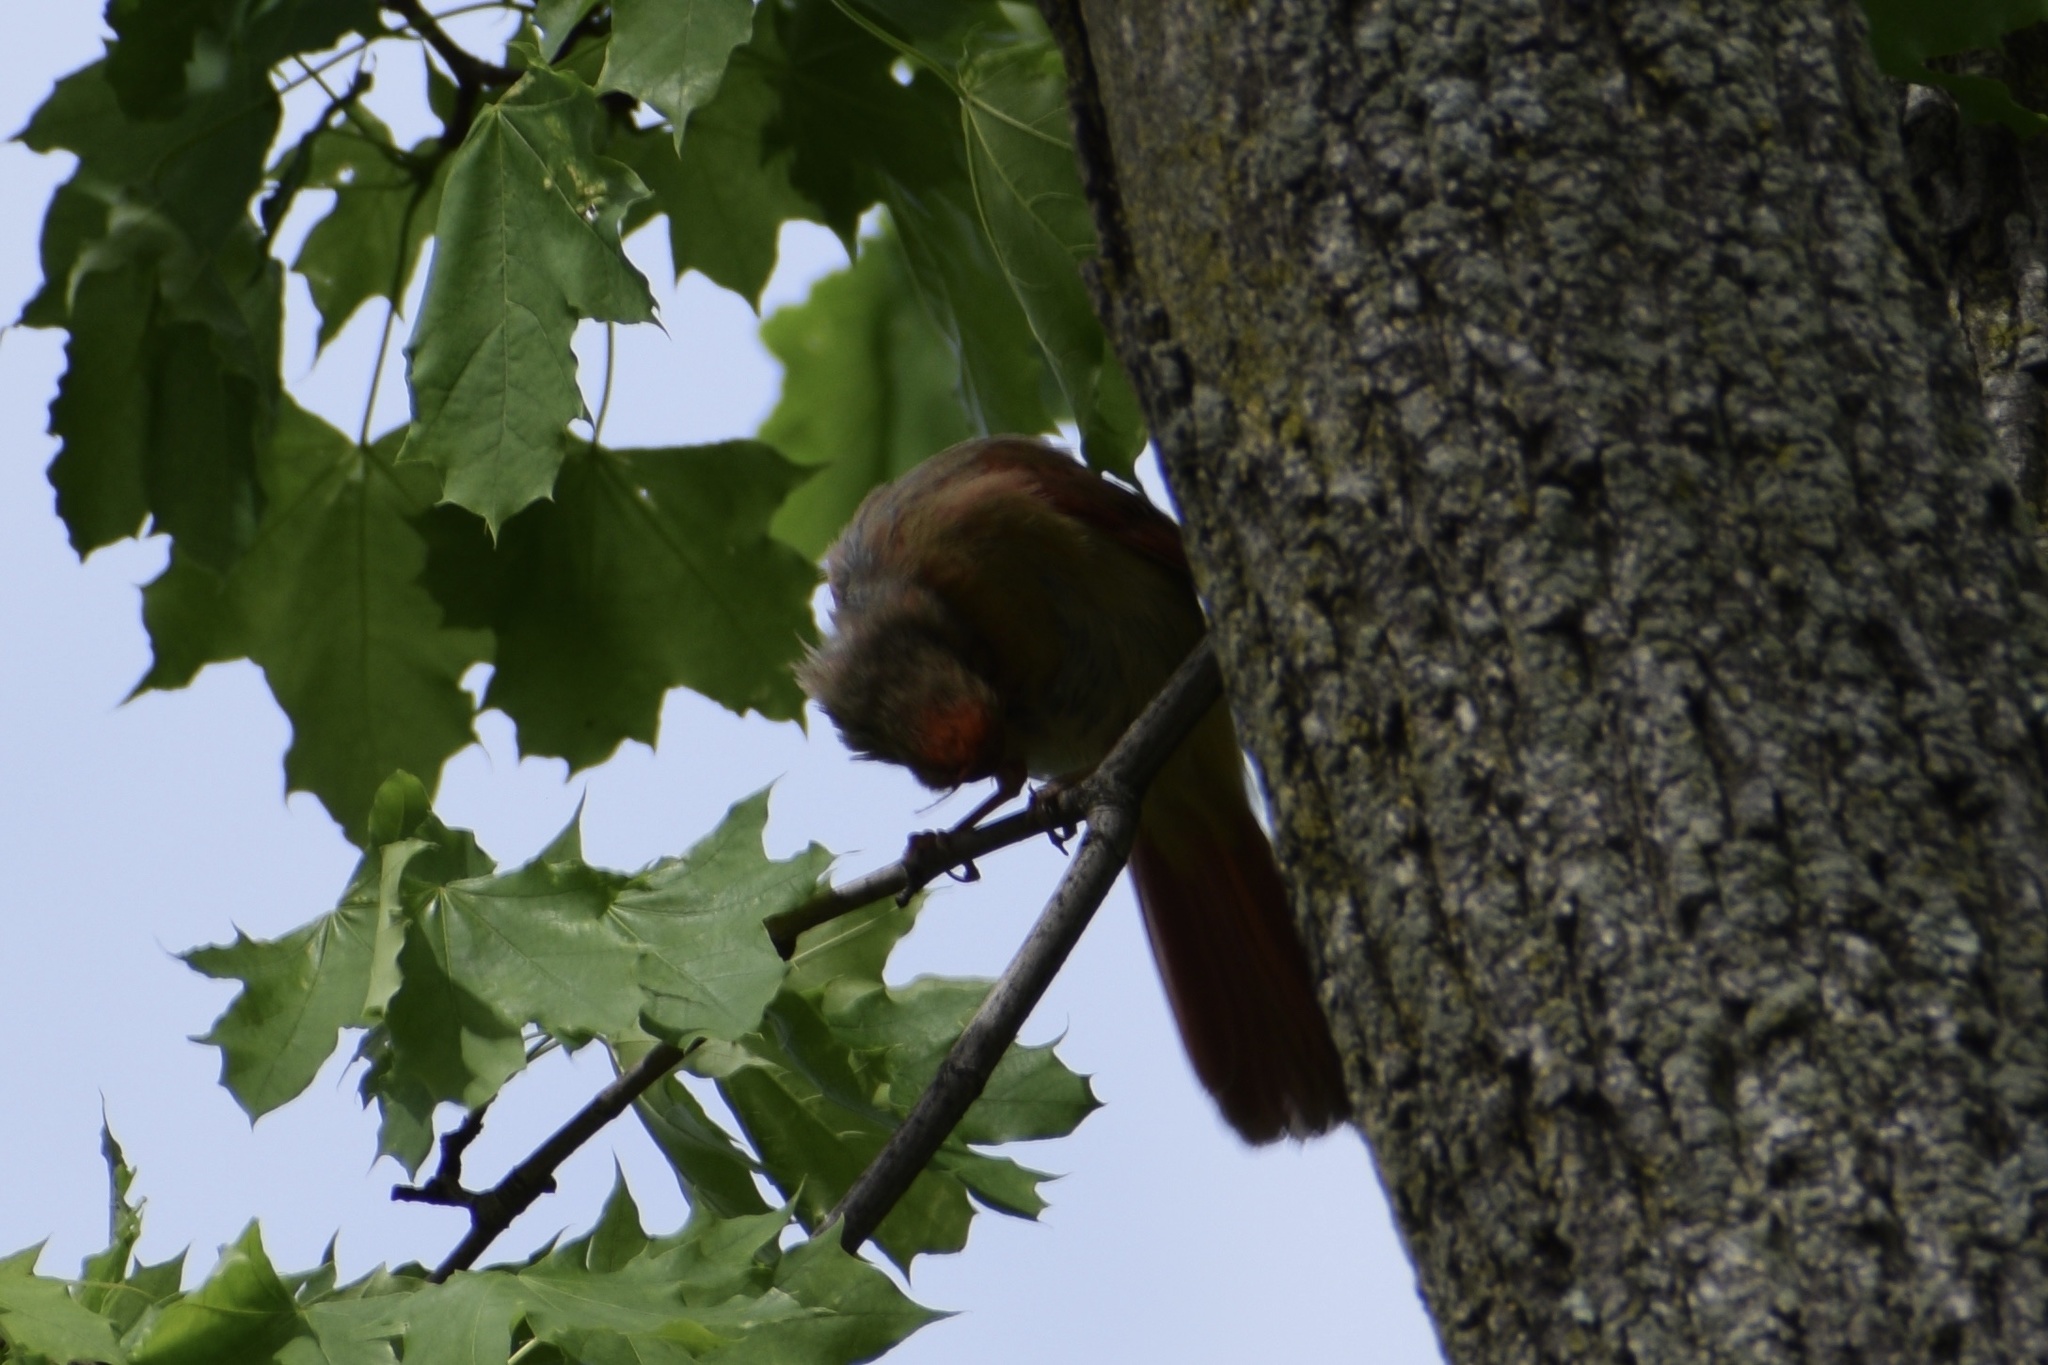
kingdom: Animalia
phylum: Chordata
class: Aves
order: Passeriformes
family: Cardinalidae
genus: Cardinalis
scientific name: Cardinalis cardinalis
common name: Northern cardinal
